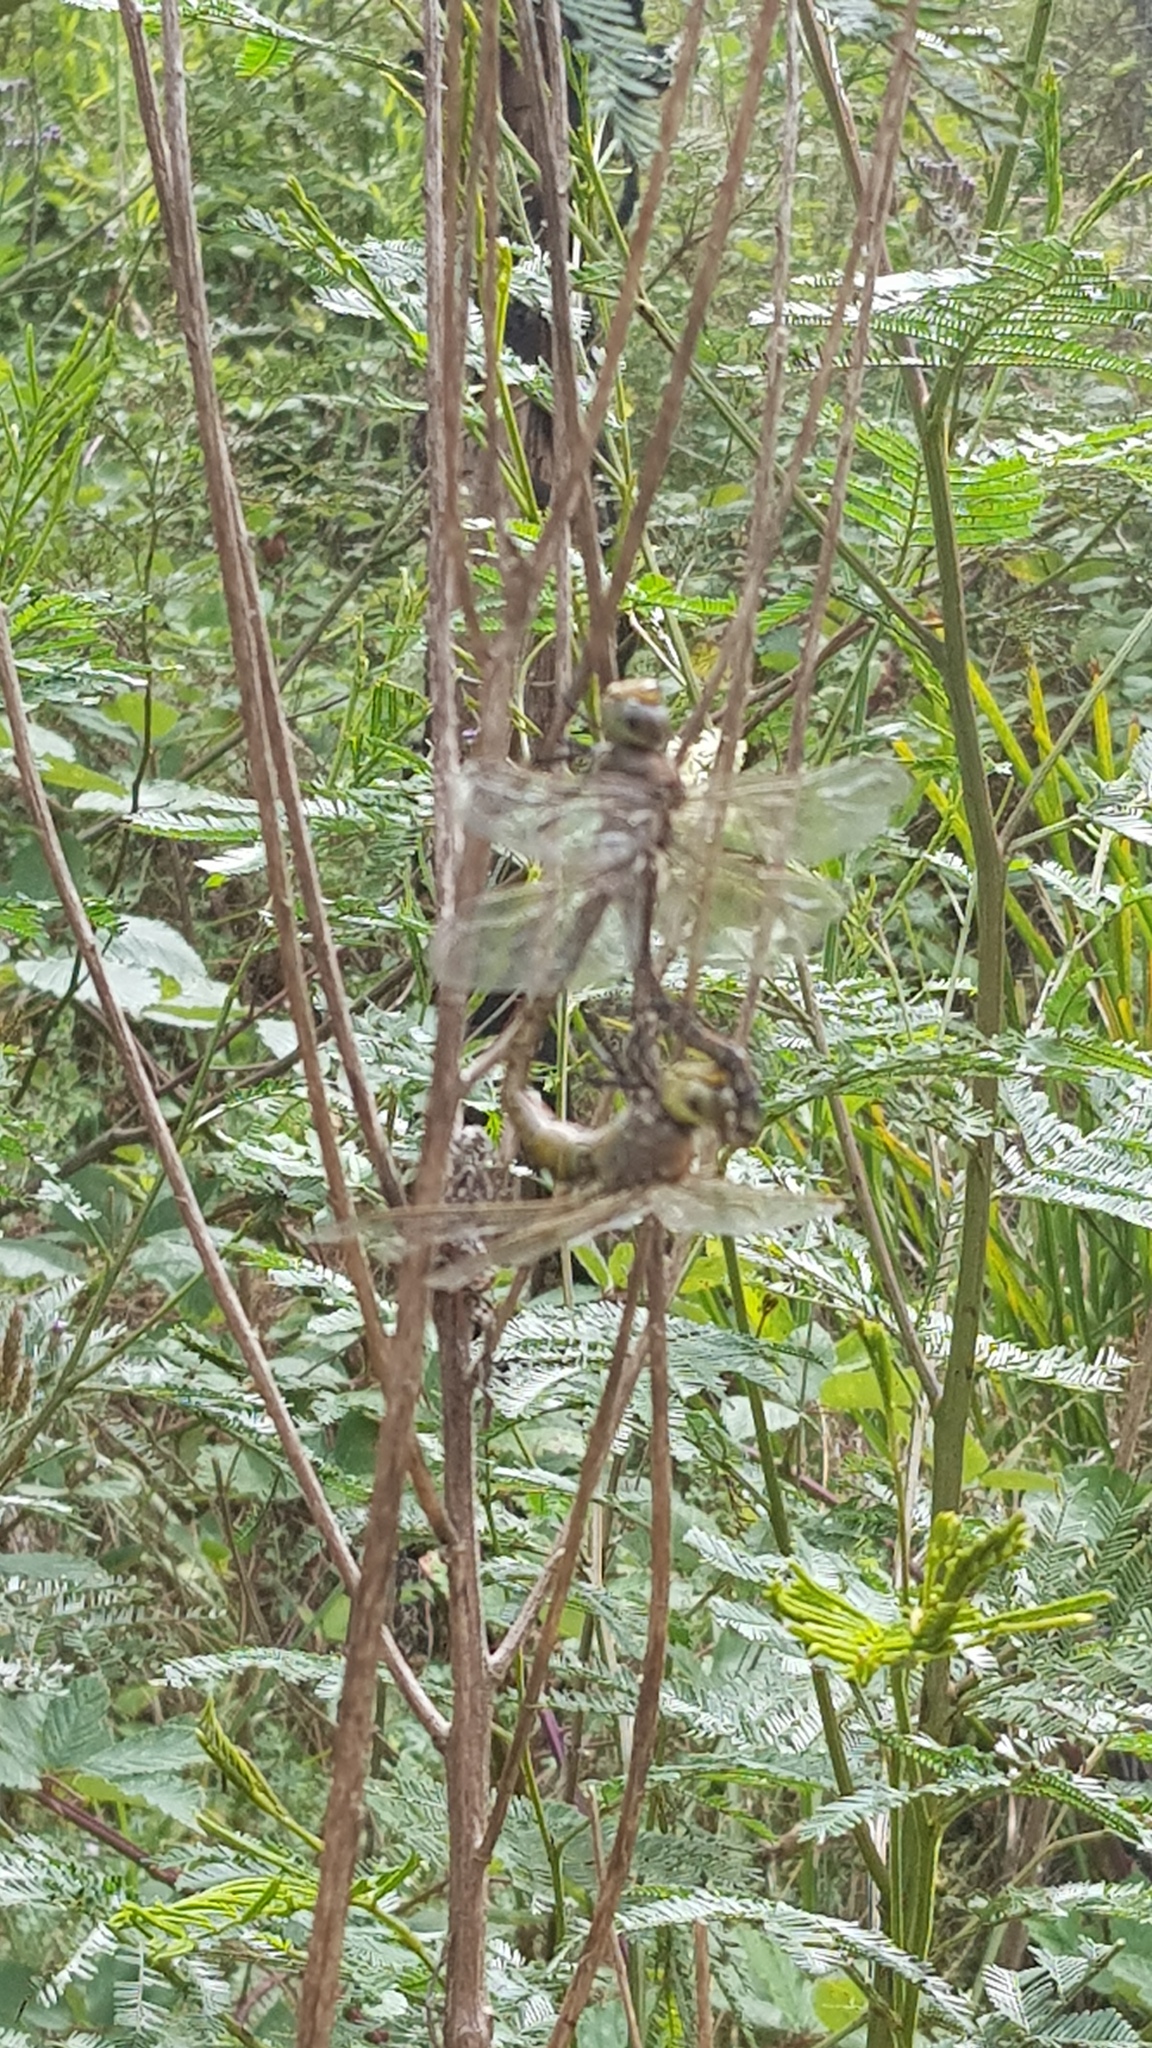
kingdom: Animalia
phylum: Arthropoda
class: Insecta
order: Odonata
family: Aeshnidae
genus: Anax
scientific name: Anax papuensis
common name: Australian emperor
